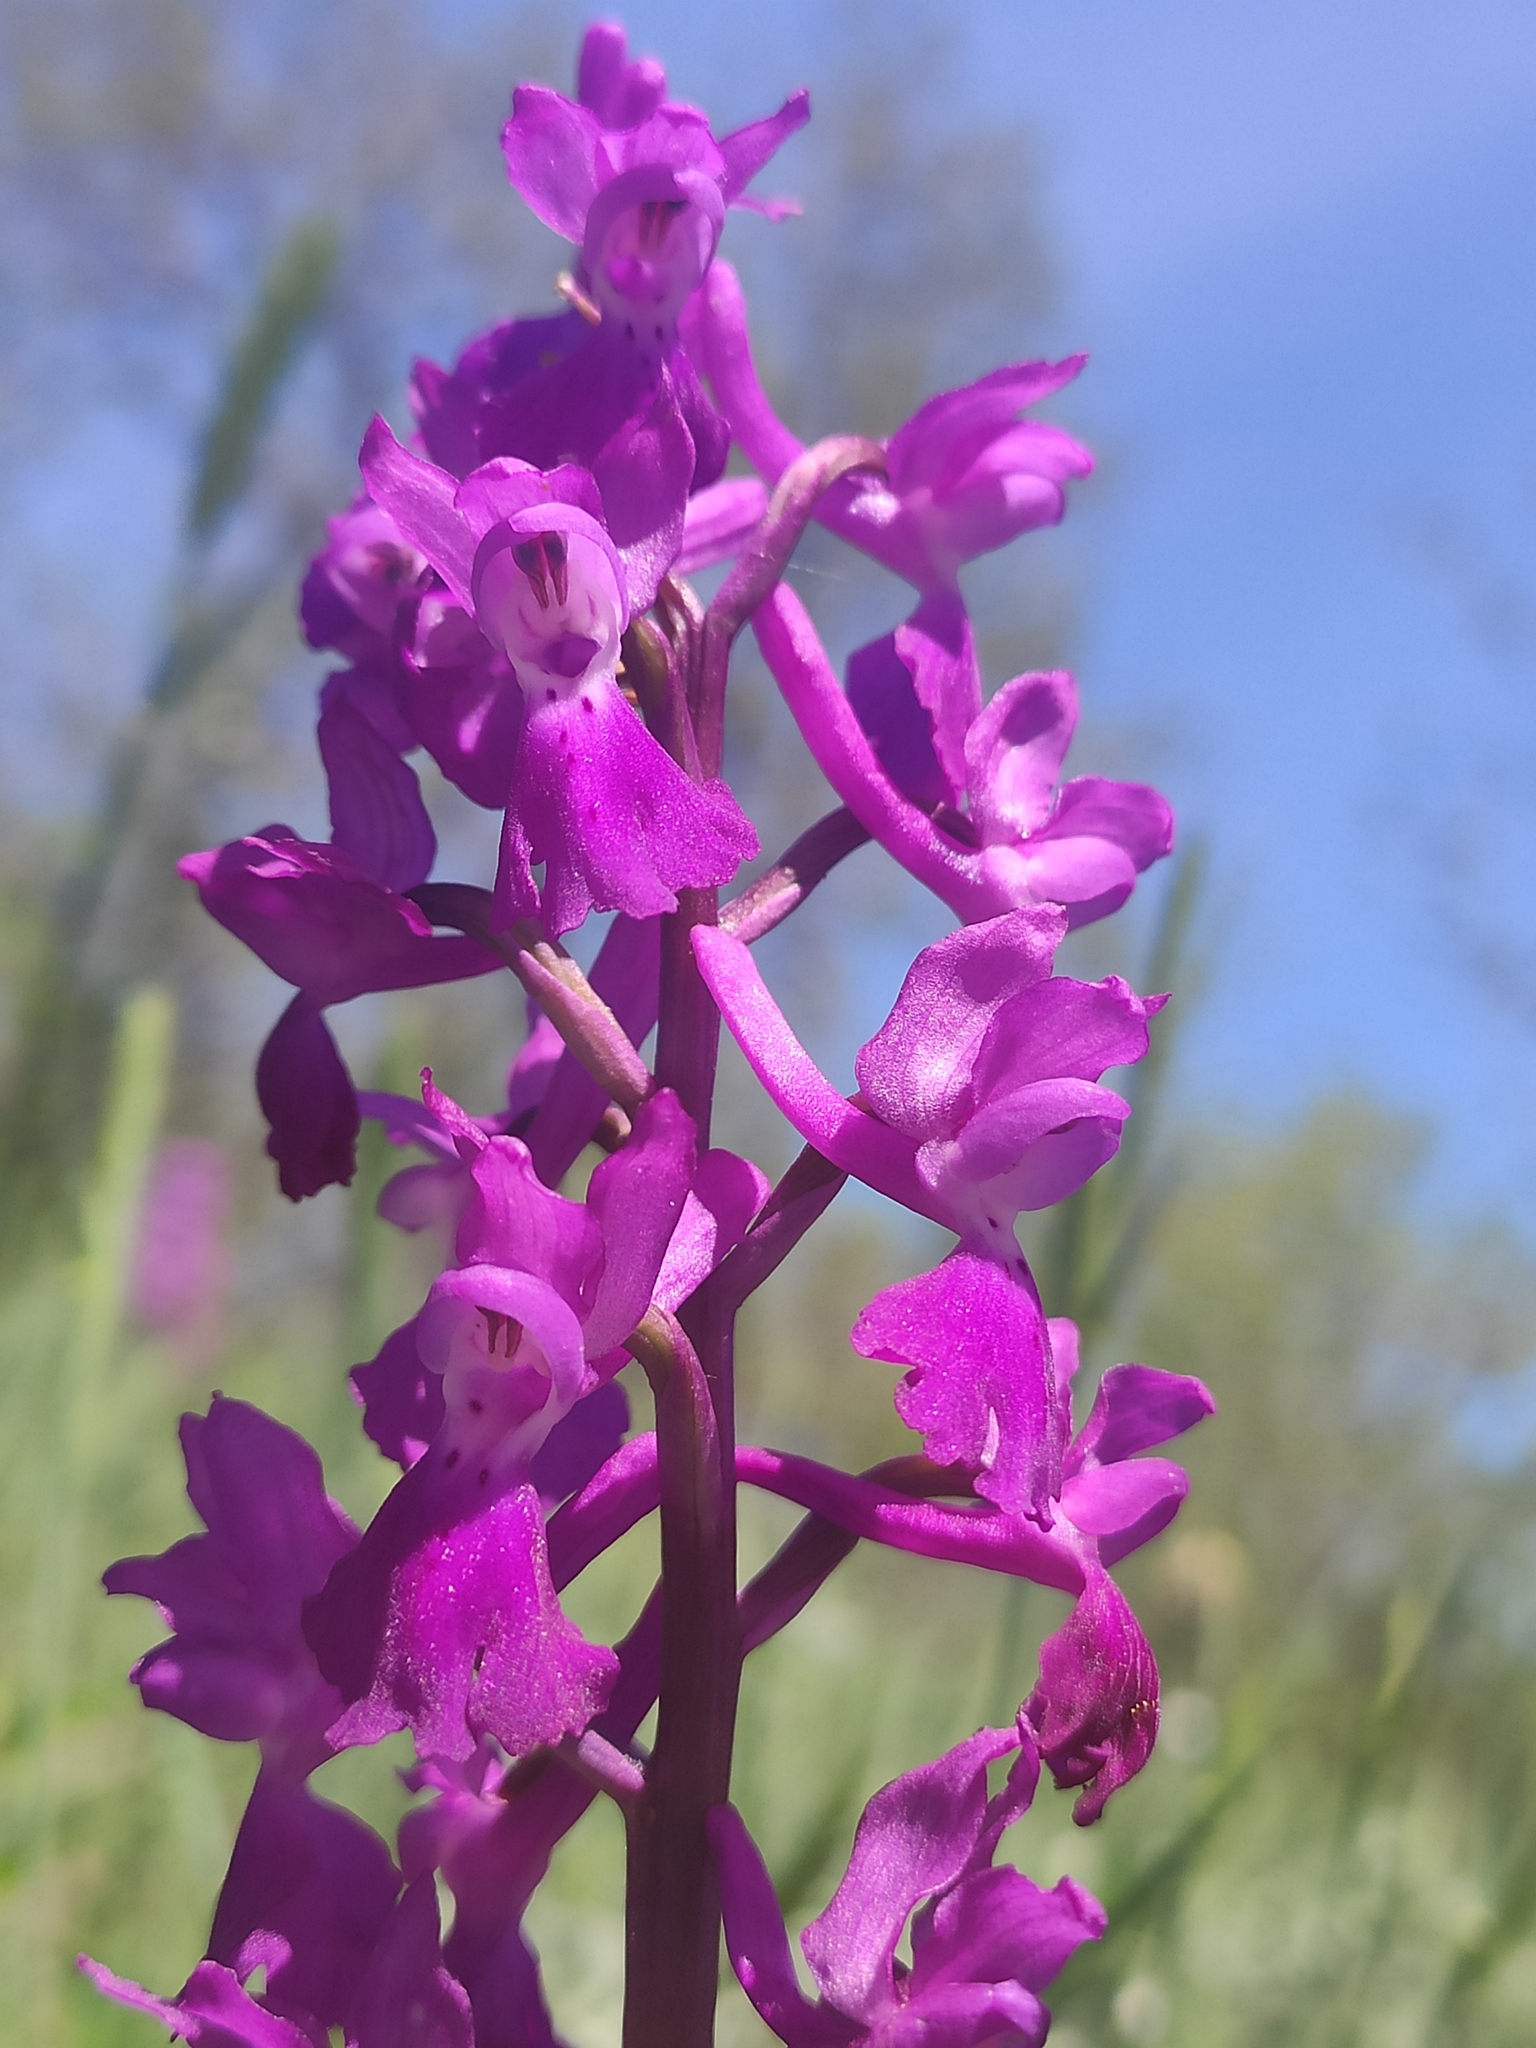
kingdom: Plantae
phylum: Tracheophyta
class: Liliopsida
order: Asparagales
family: Orchidaceae
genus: Orchis
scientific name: Orchis mascula
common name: Early-purple orchid
